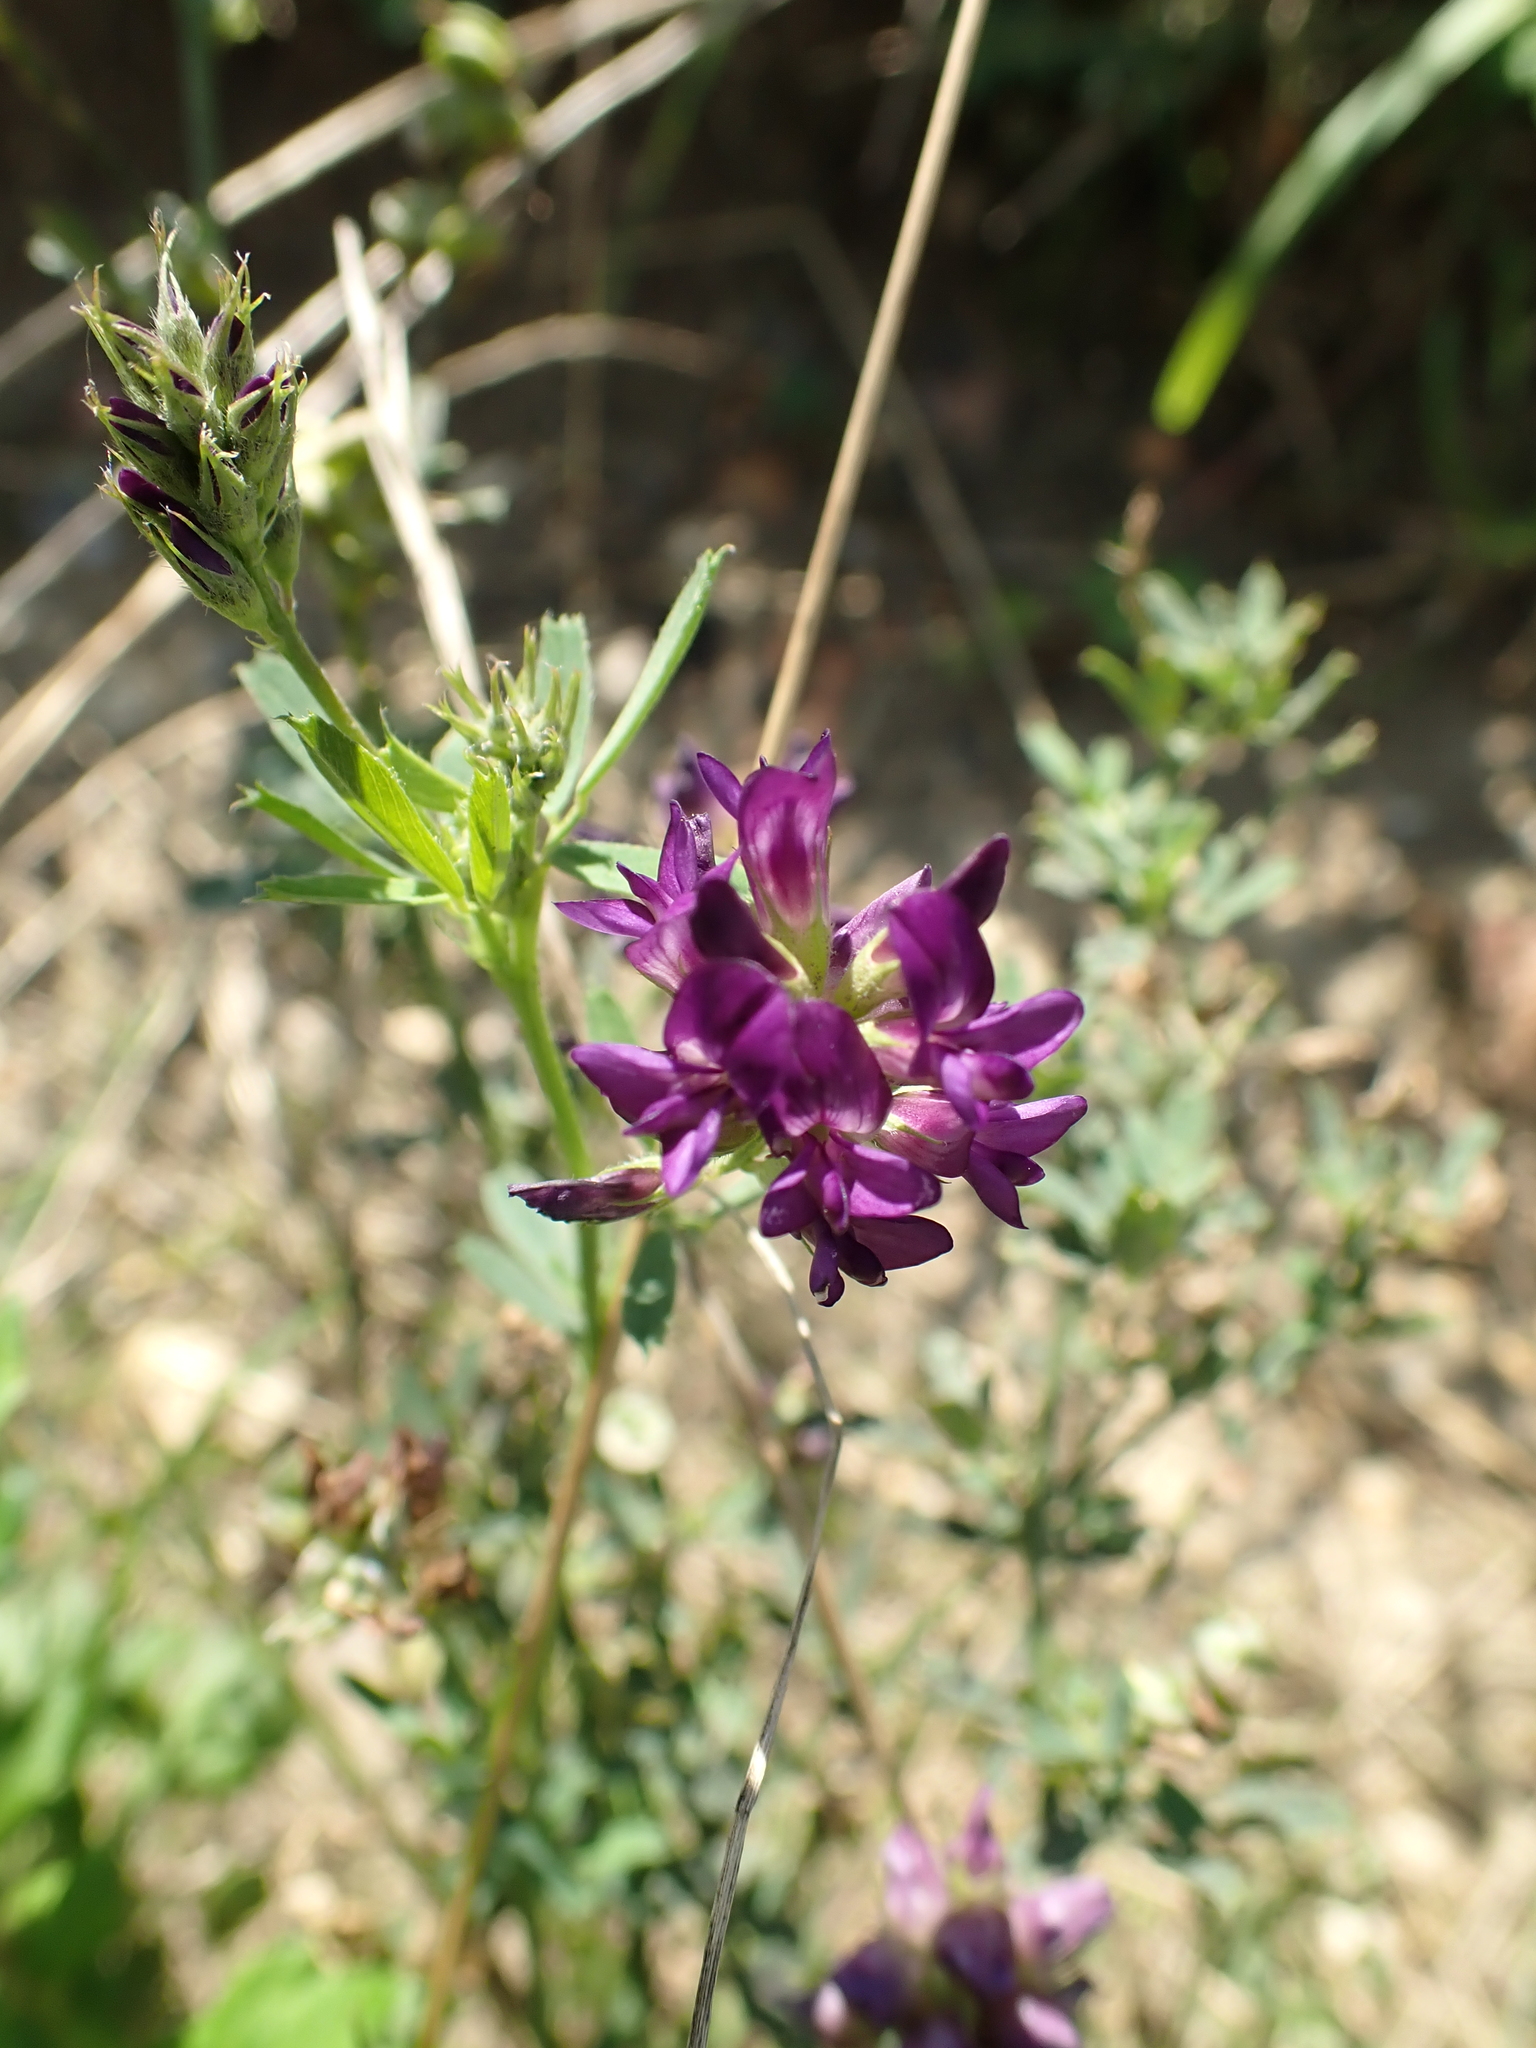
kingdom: Plantae
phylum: Tracheophyta
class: Magnoliopsida
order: Fabales
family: Fabaceae
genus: Medicago
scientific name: Medicago sativa
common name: Alfalfa
